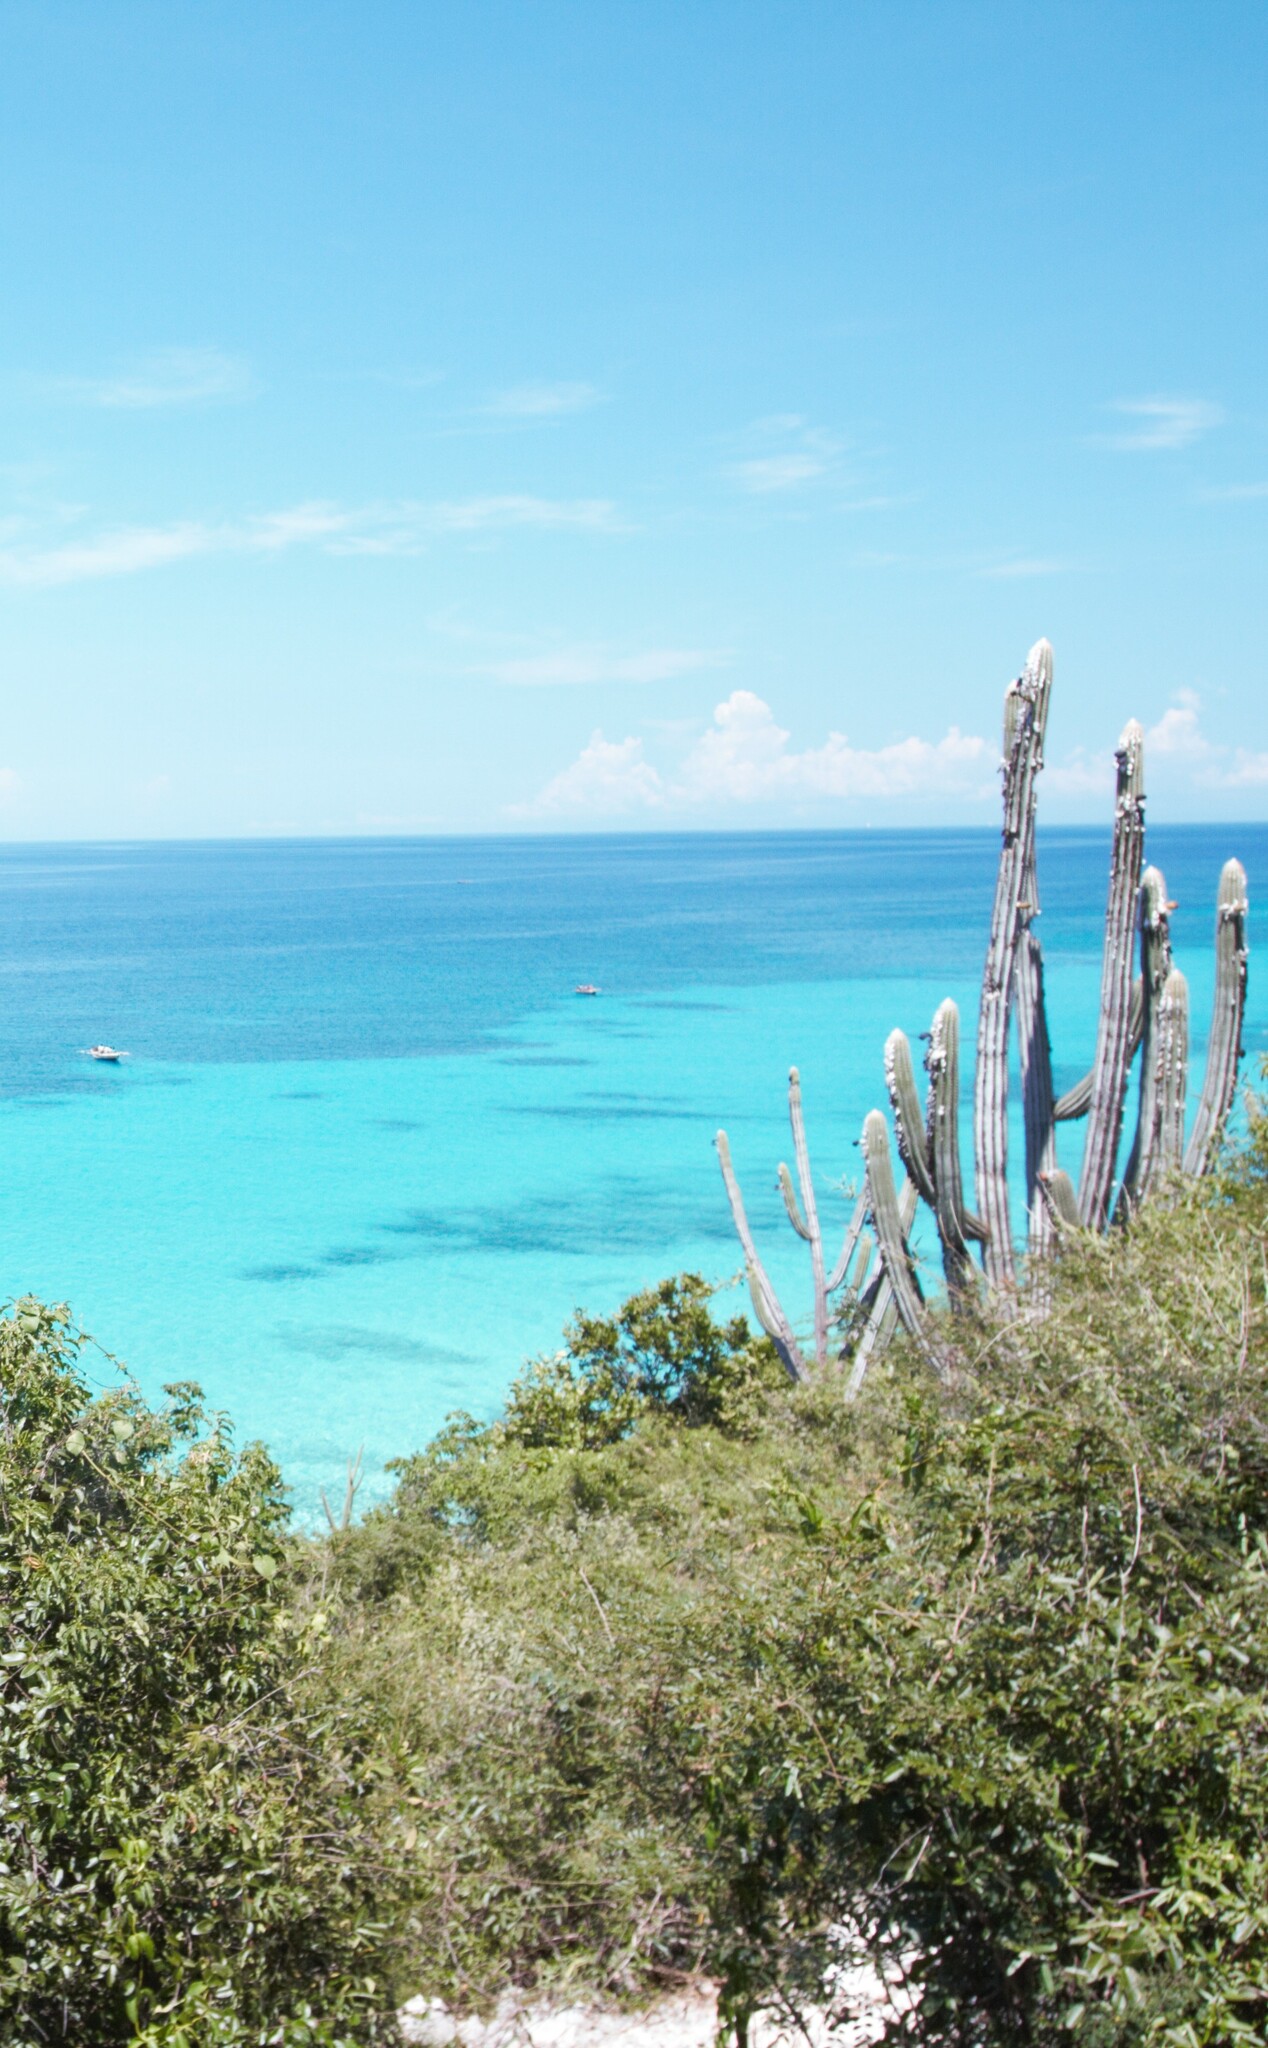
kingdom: Plantae
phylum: Tracheophyta
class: Magnoliopsida
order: Caryophyllales
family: Cactaceae
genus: Pilosocereus
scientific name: Pilosocereus polygonus
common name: Key tree cactus
